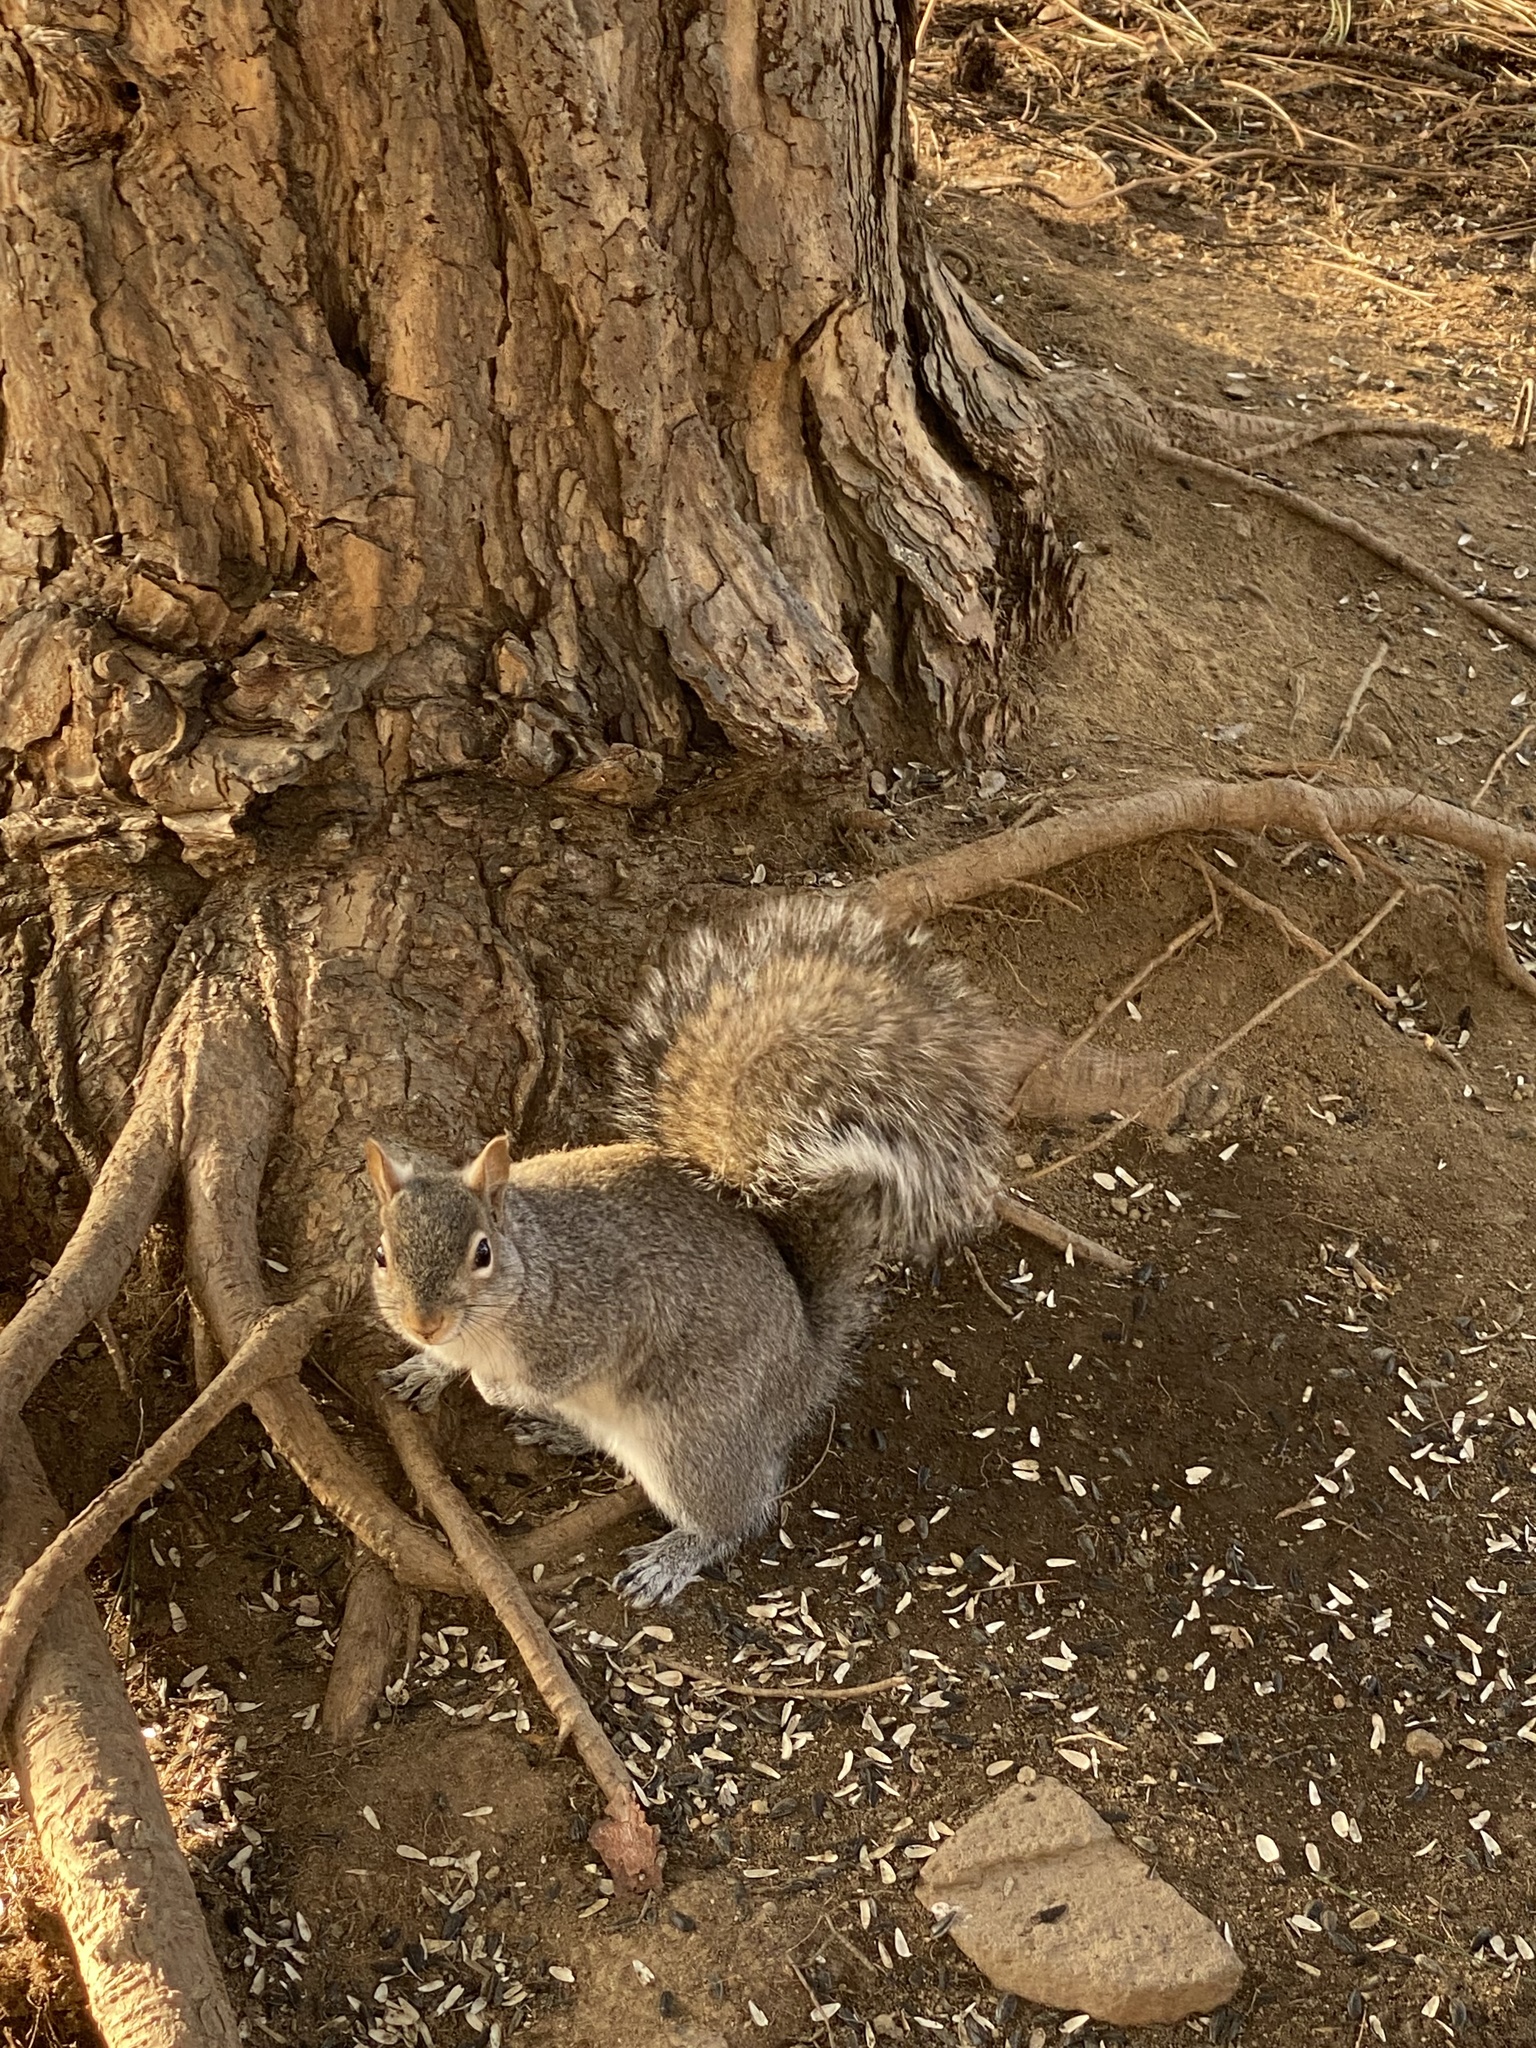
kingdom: Animalia
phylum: Chordata
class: Mammalia
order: Rodentia
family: Sciuridae
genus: Sciurus
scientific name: Sciurus carolinensis
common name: Eastern gray squirrel
